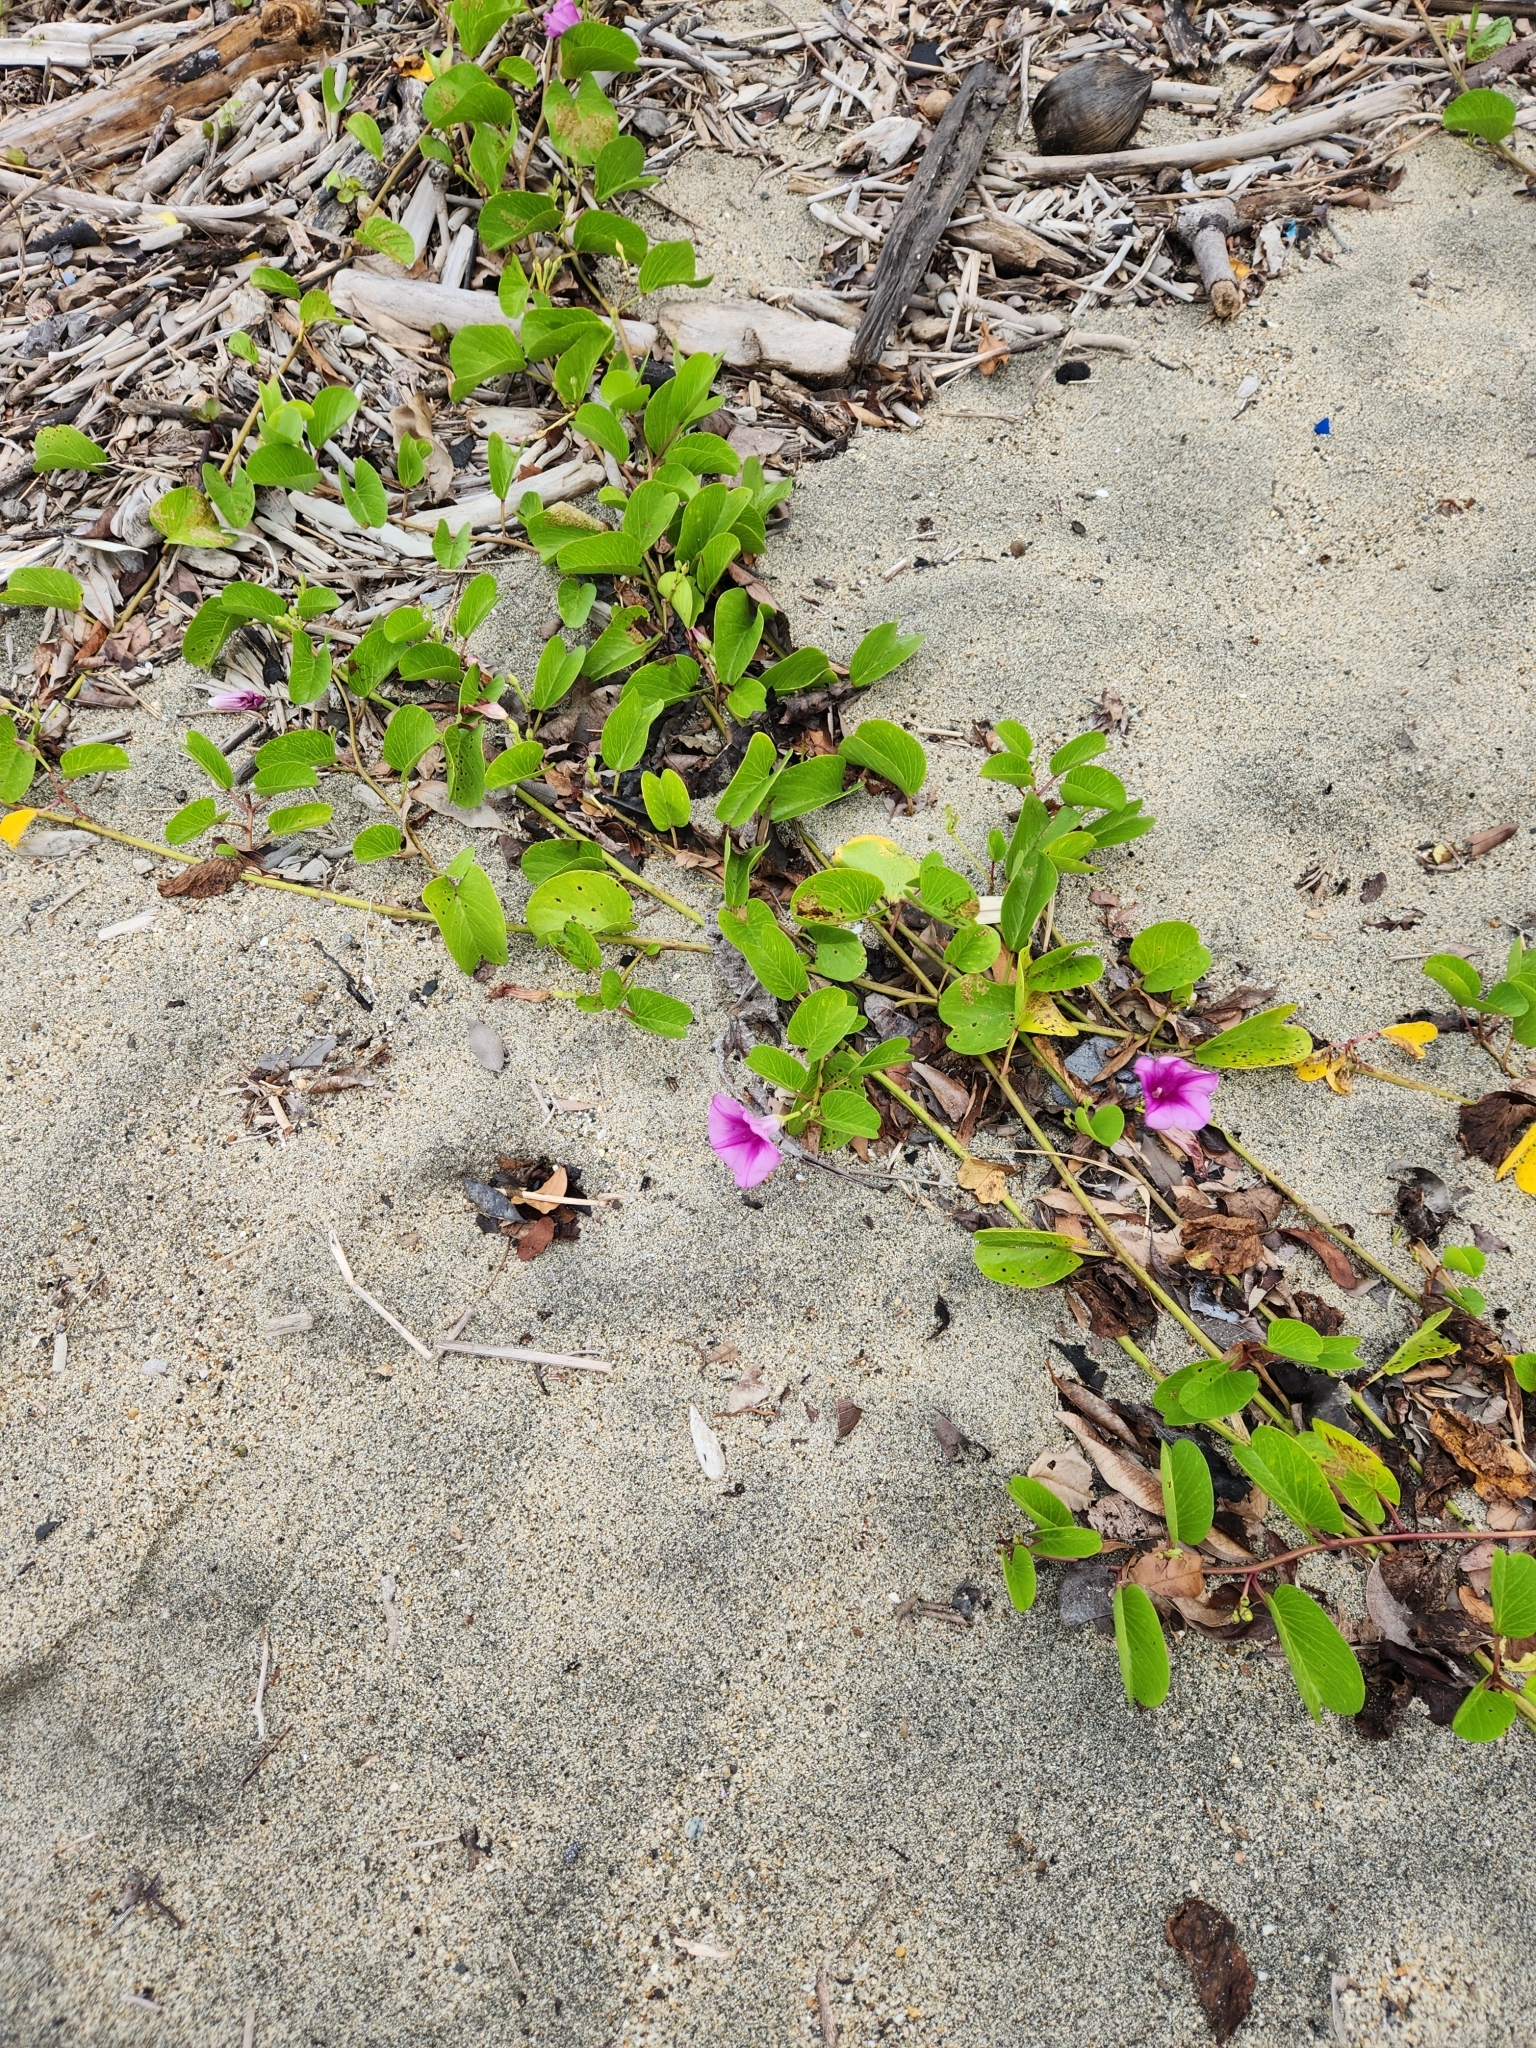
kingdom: Plantae
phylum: Tracheophyta
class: Magnoliopsida
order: Solanales
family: Convolvulaceae
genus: Ipomoea
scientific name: Ipomoea pes-caprae
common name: Beach morning glory
